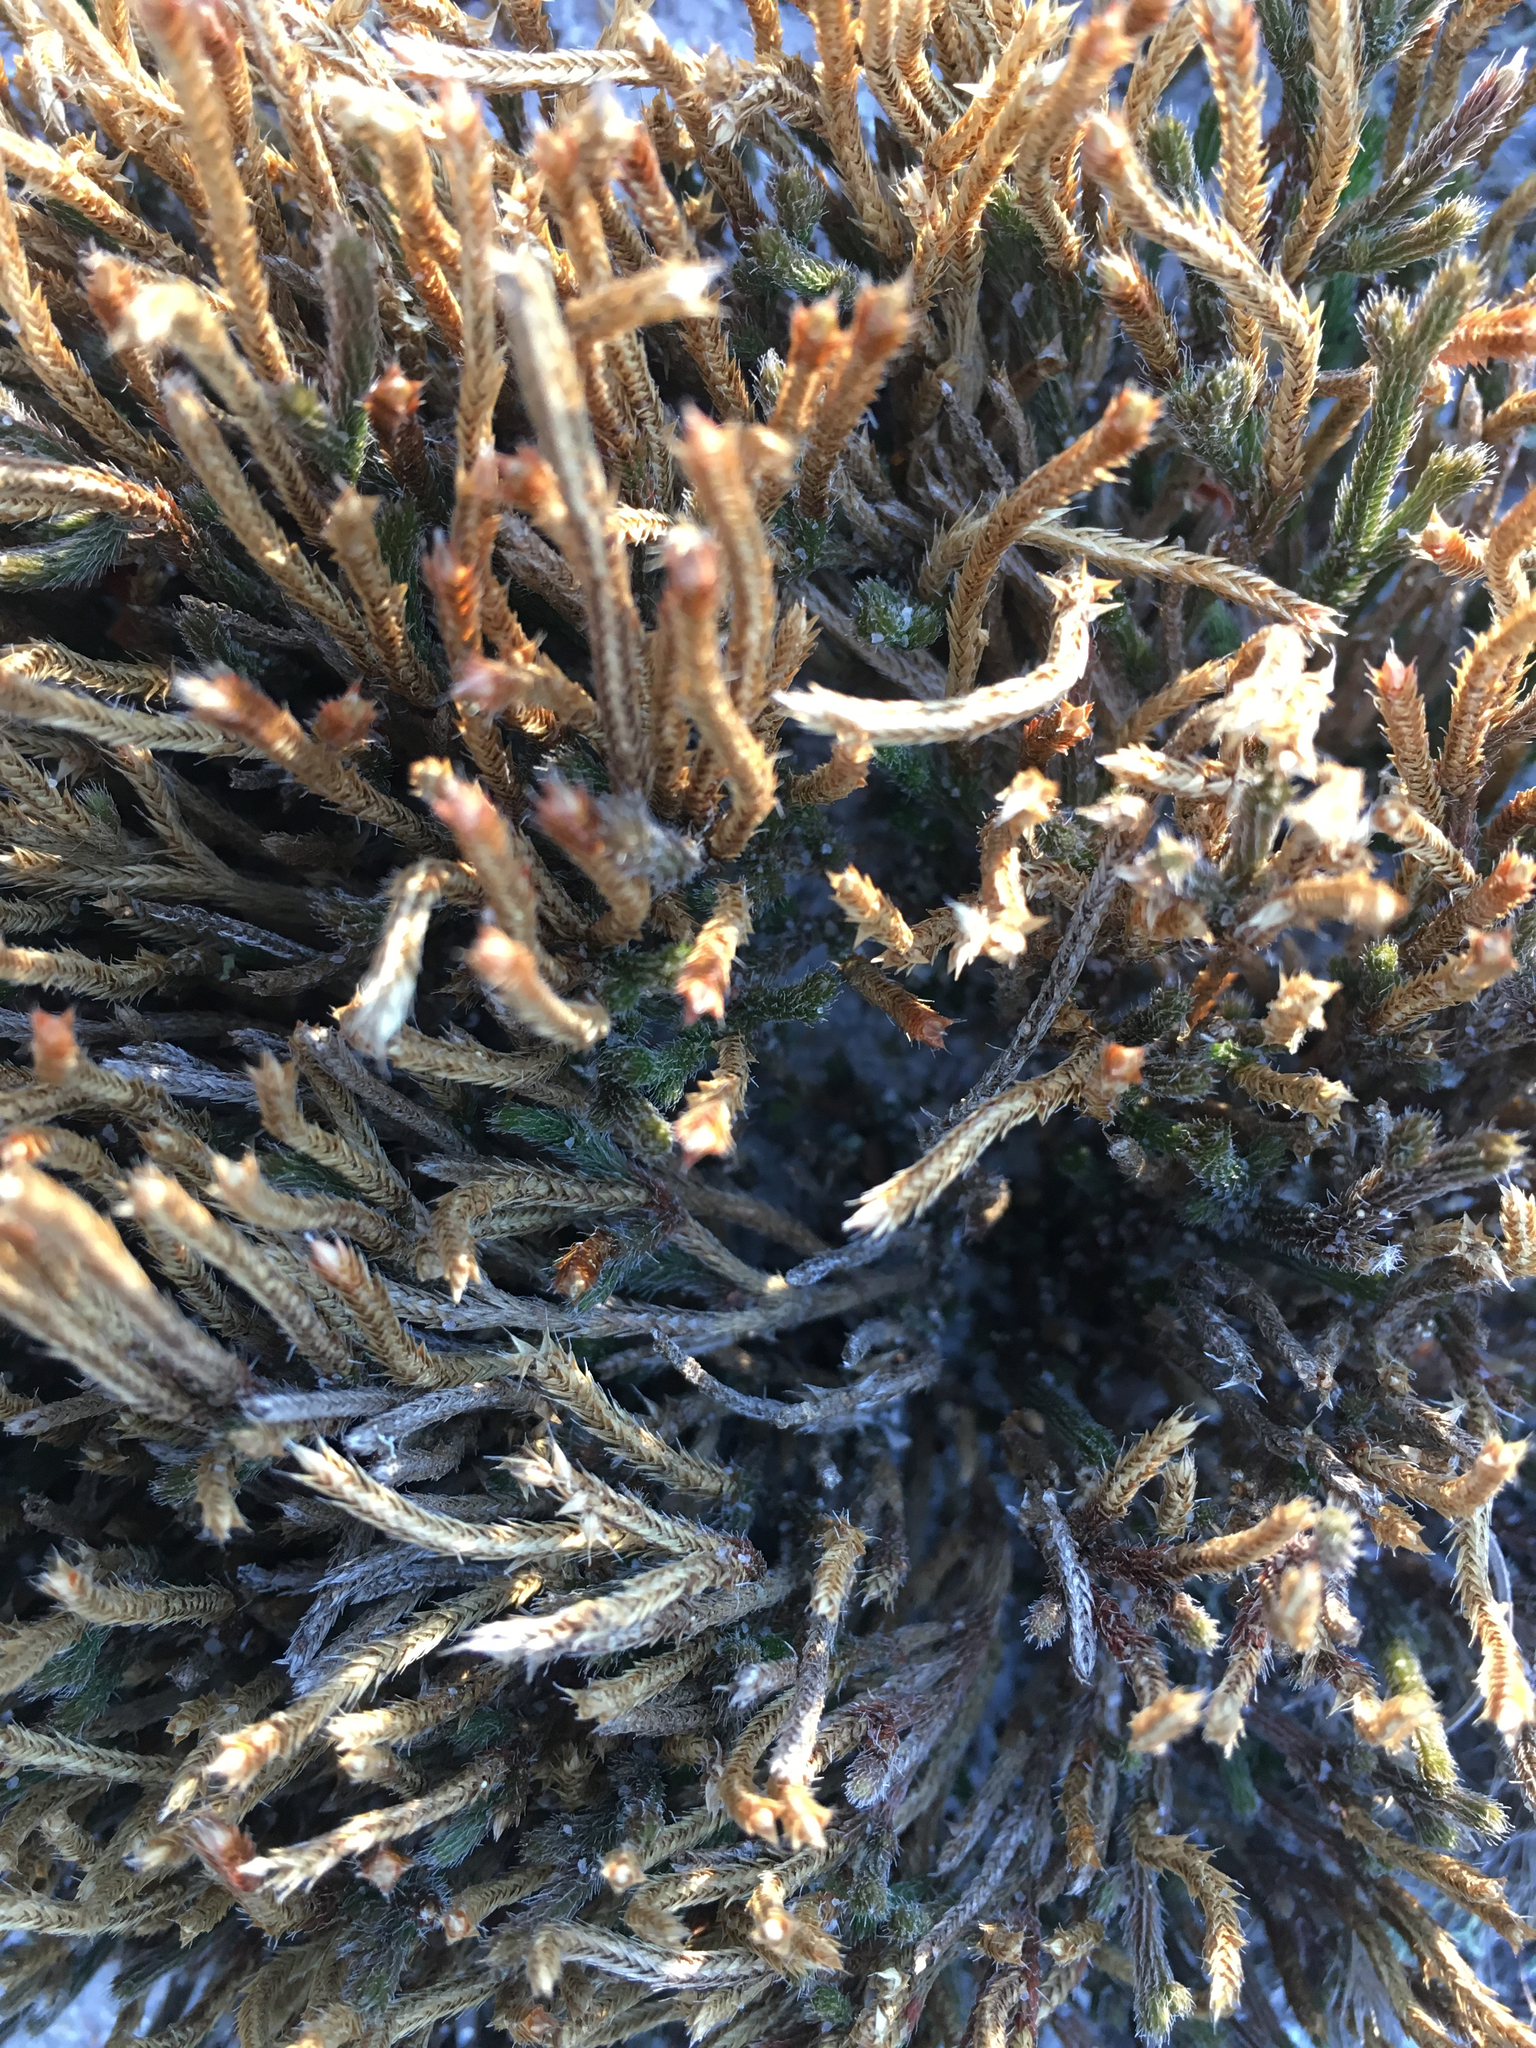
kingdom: Plantae
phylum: Tracheophyta
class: Lycopodiopsida
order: Selaginellales
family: Selaginellaceae
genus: Selaginella
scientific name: Selaginella acanthonota
